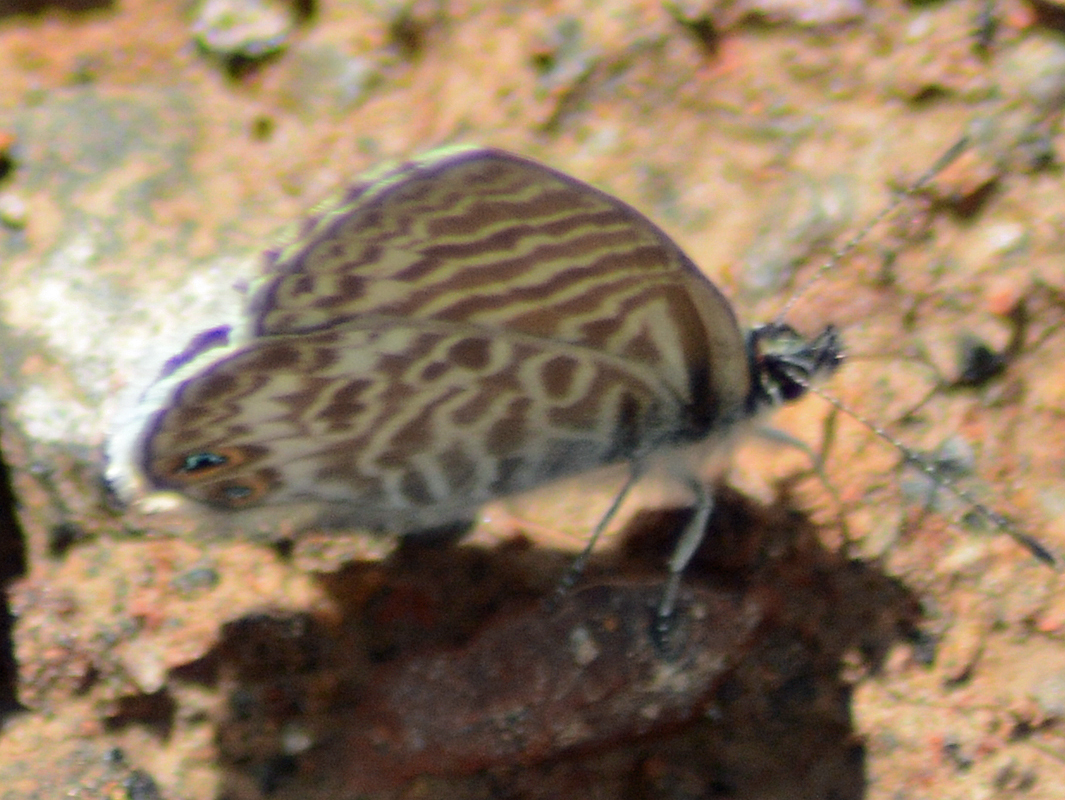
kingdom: Animalia
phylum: Arthropoda
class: Insecta
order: Lepidoptera
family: Lycaenidae
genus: Leptotes
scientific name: Leptotes marina
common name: Marine blue
